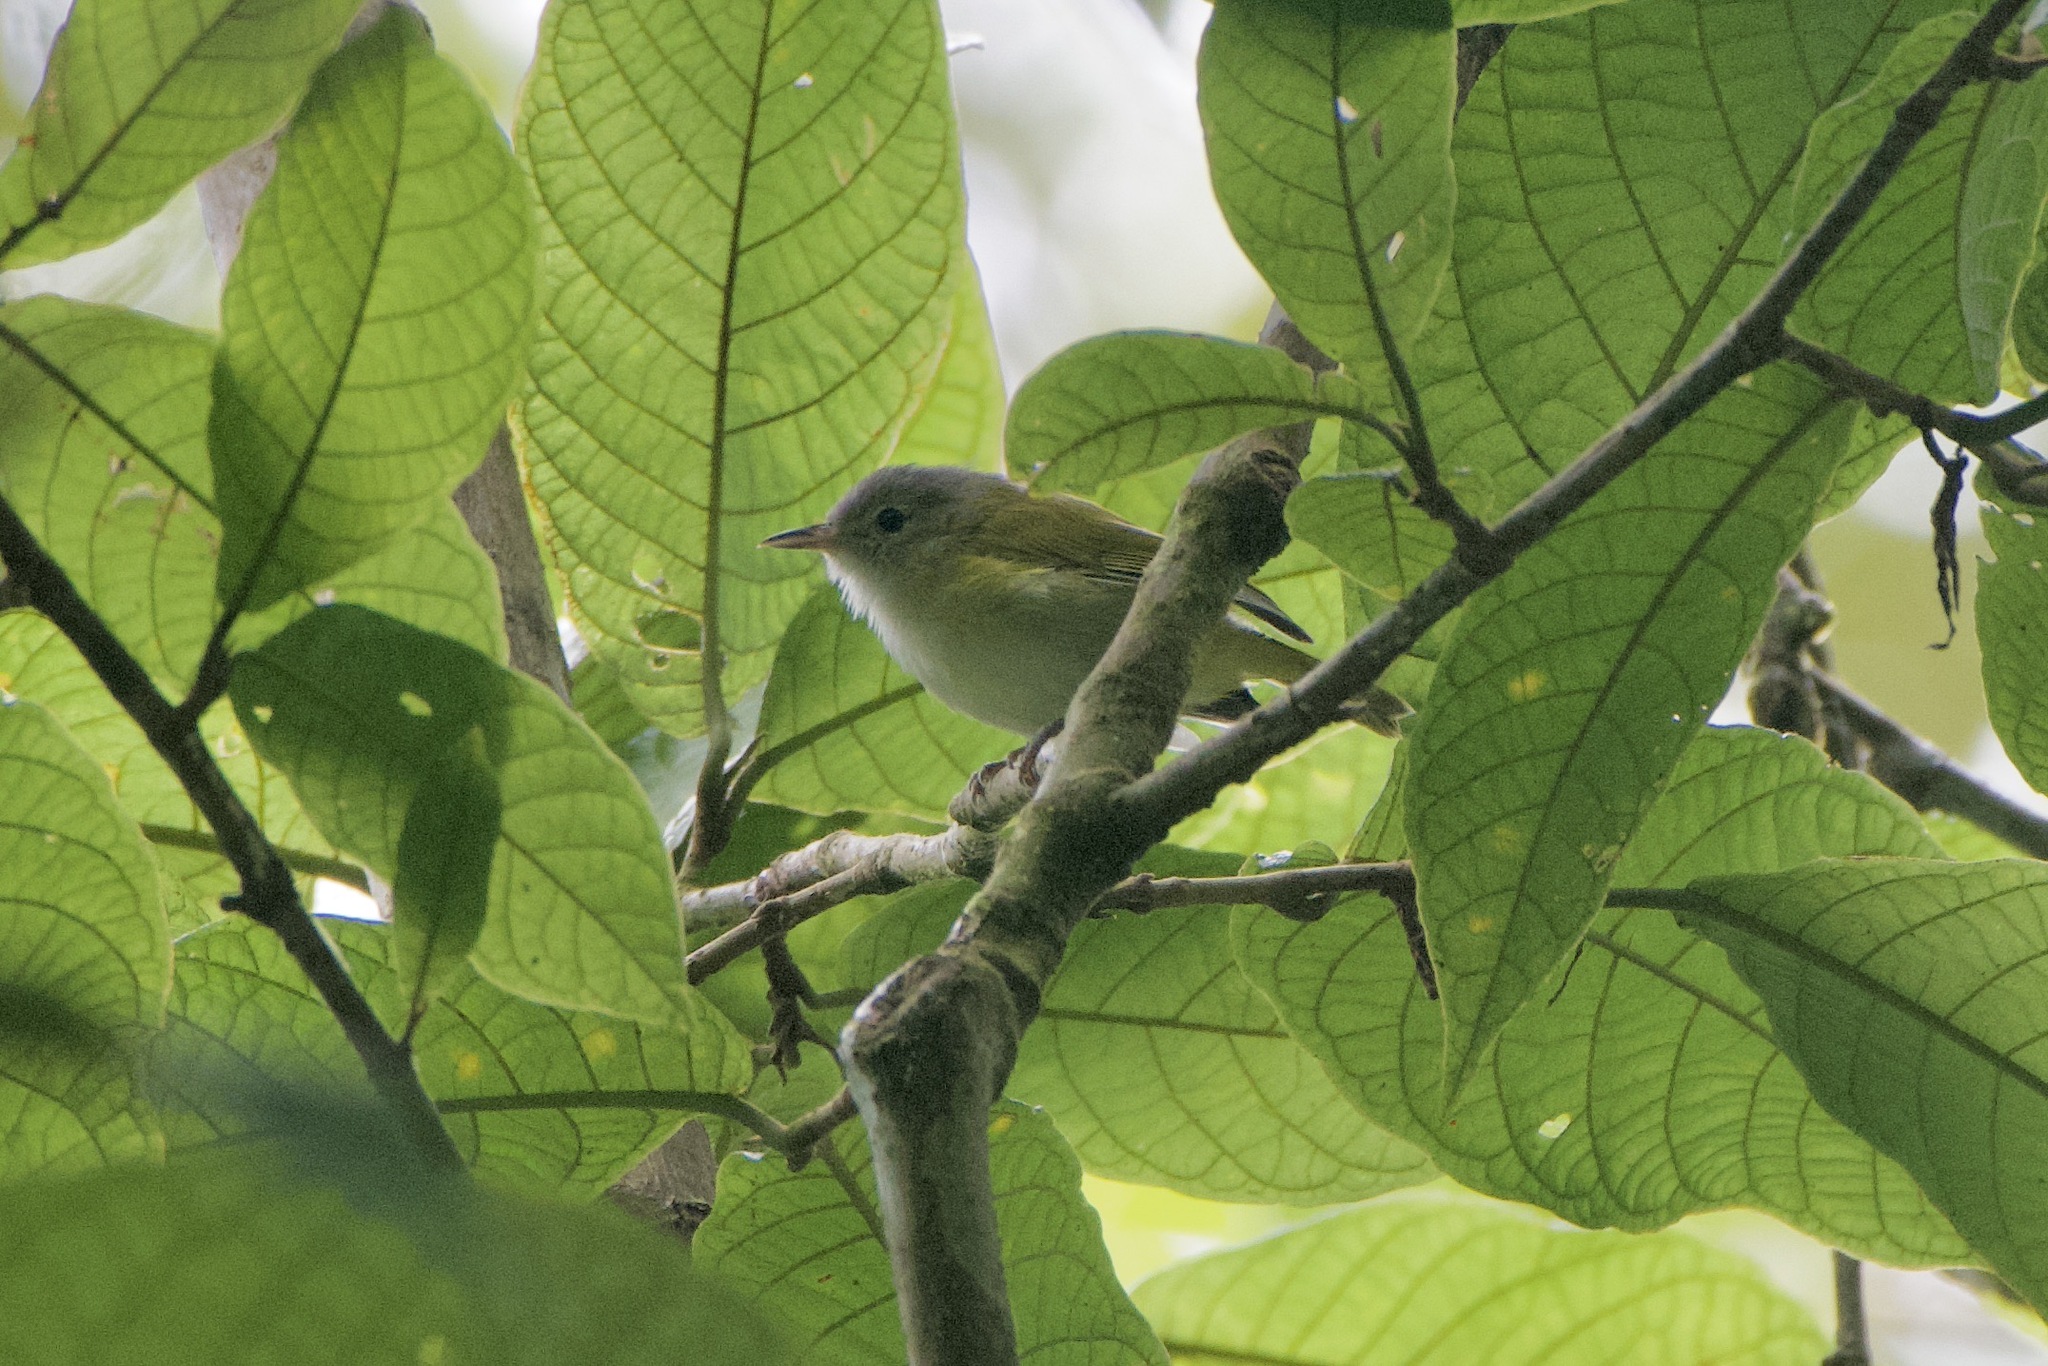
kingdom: Animalia
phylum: Chordata
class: Aves
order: Passeriformes
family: Vireonidae
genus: Hylophilus
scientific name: Hylophilus decurtatus
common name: Lesser greenlet
